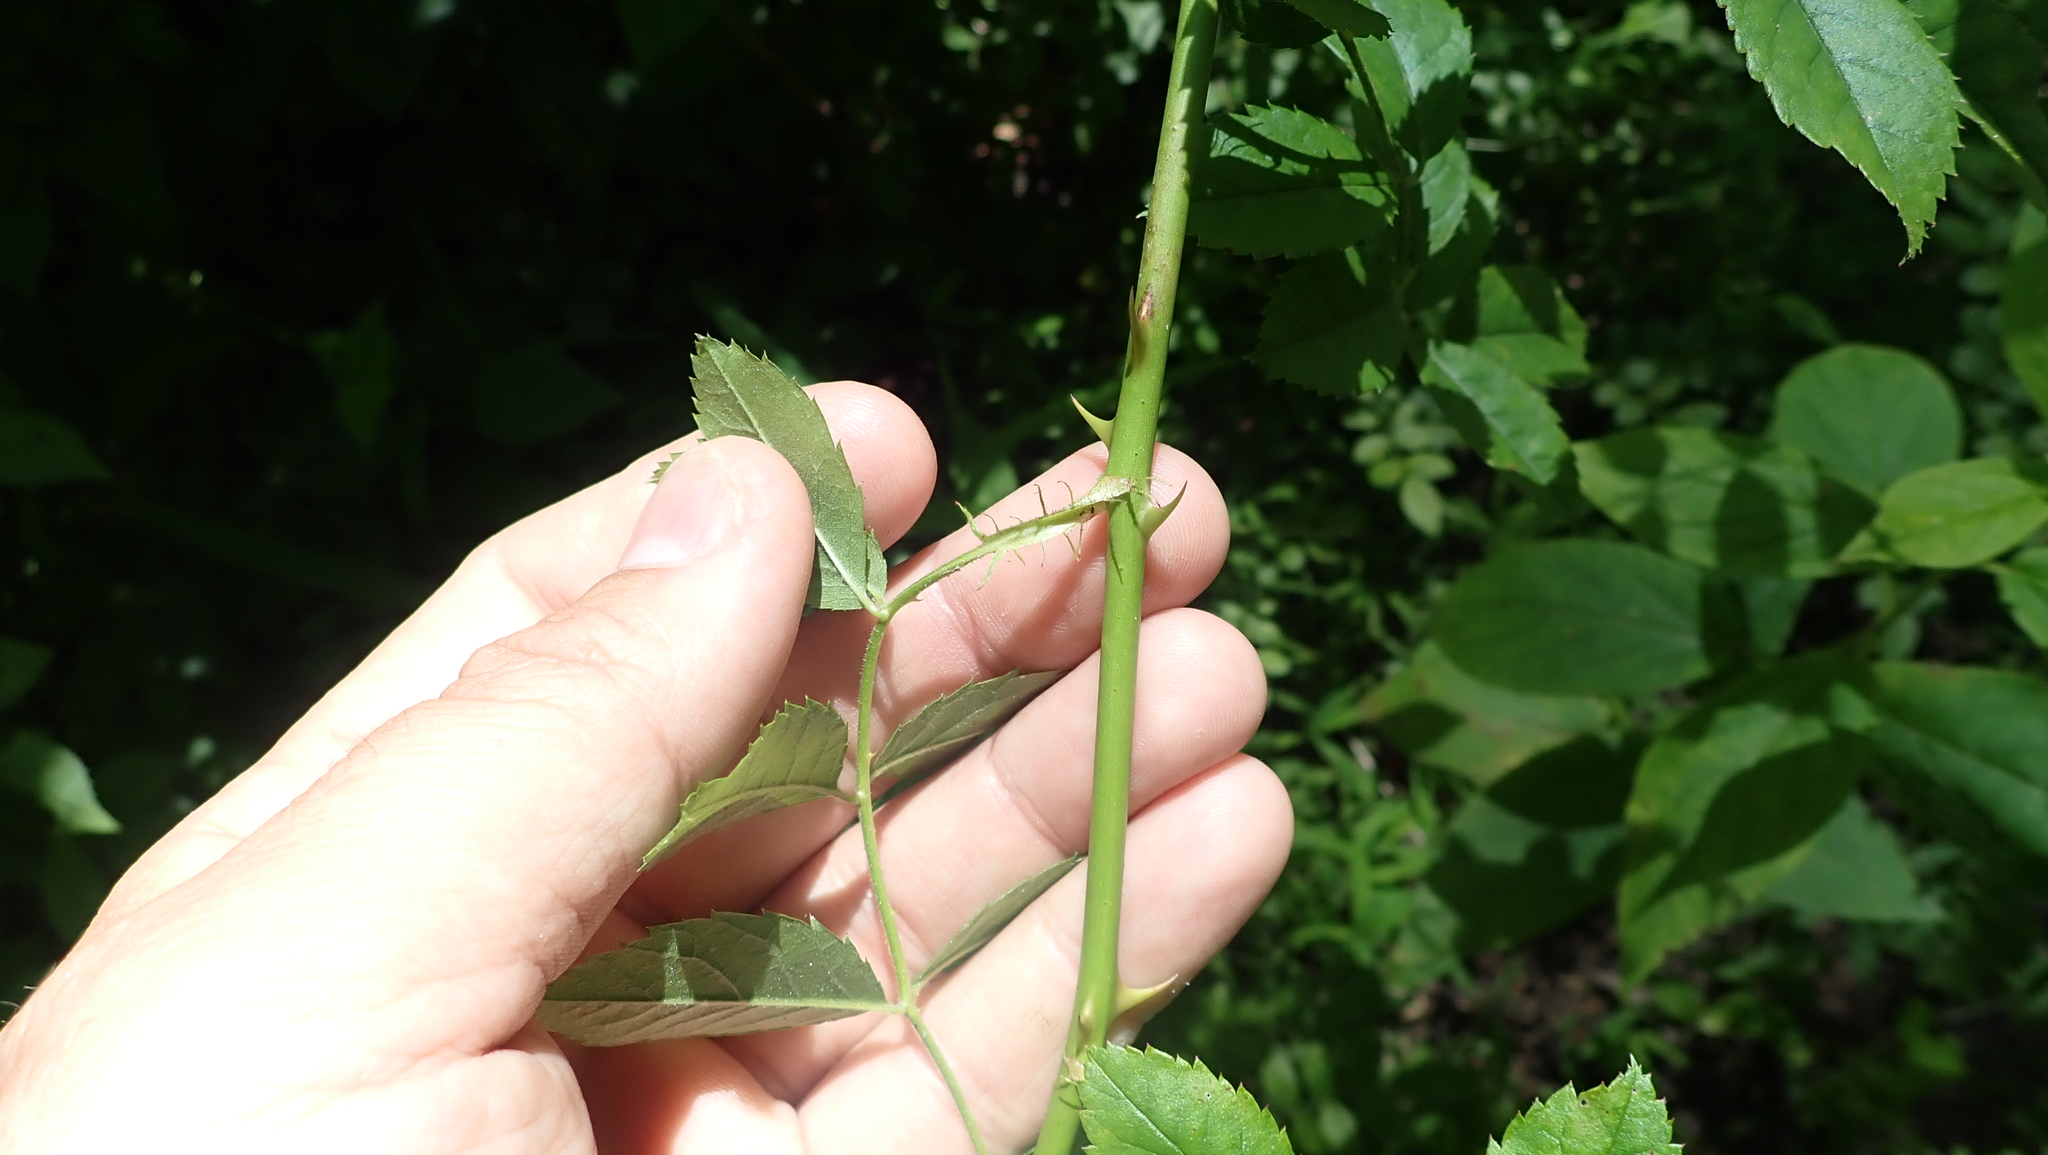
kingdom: Plantae
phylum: Tracheophyta
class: Magnoliopsida
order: Rosales
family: Rosaceae
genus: Rosa
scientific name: Rosa multiflora
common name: Multiflora rose
